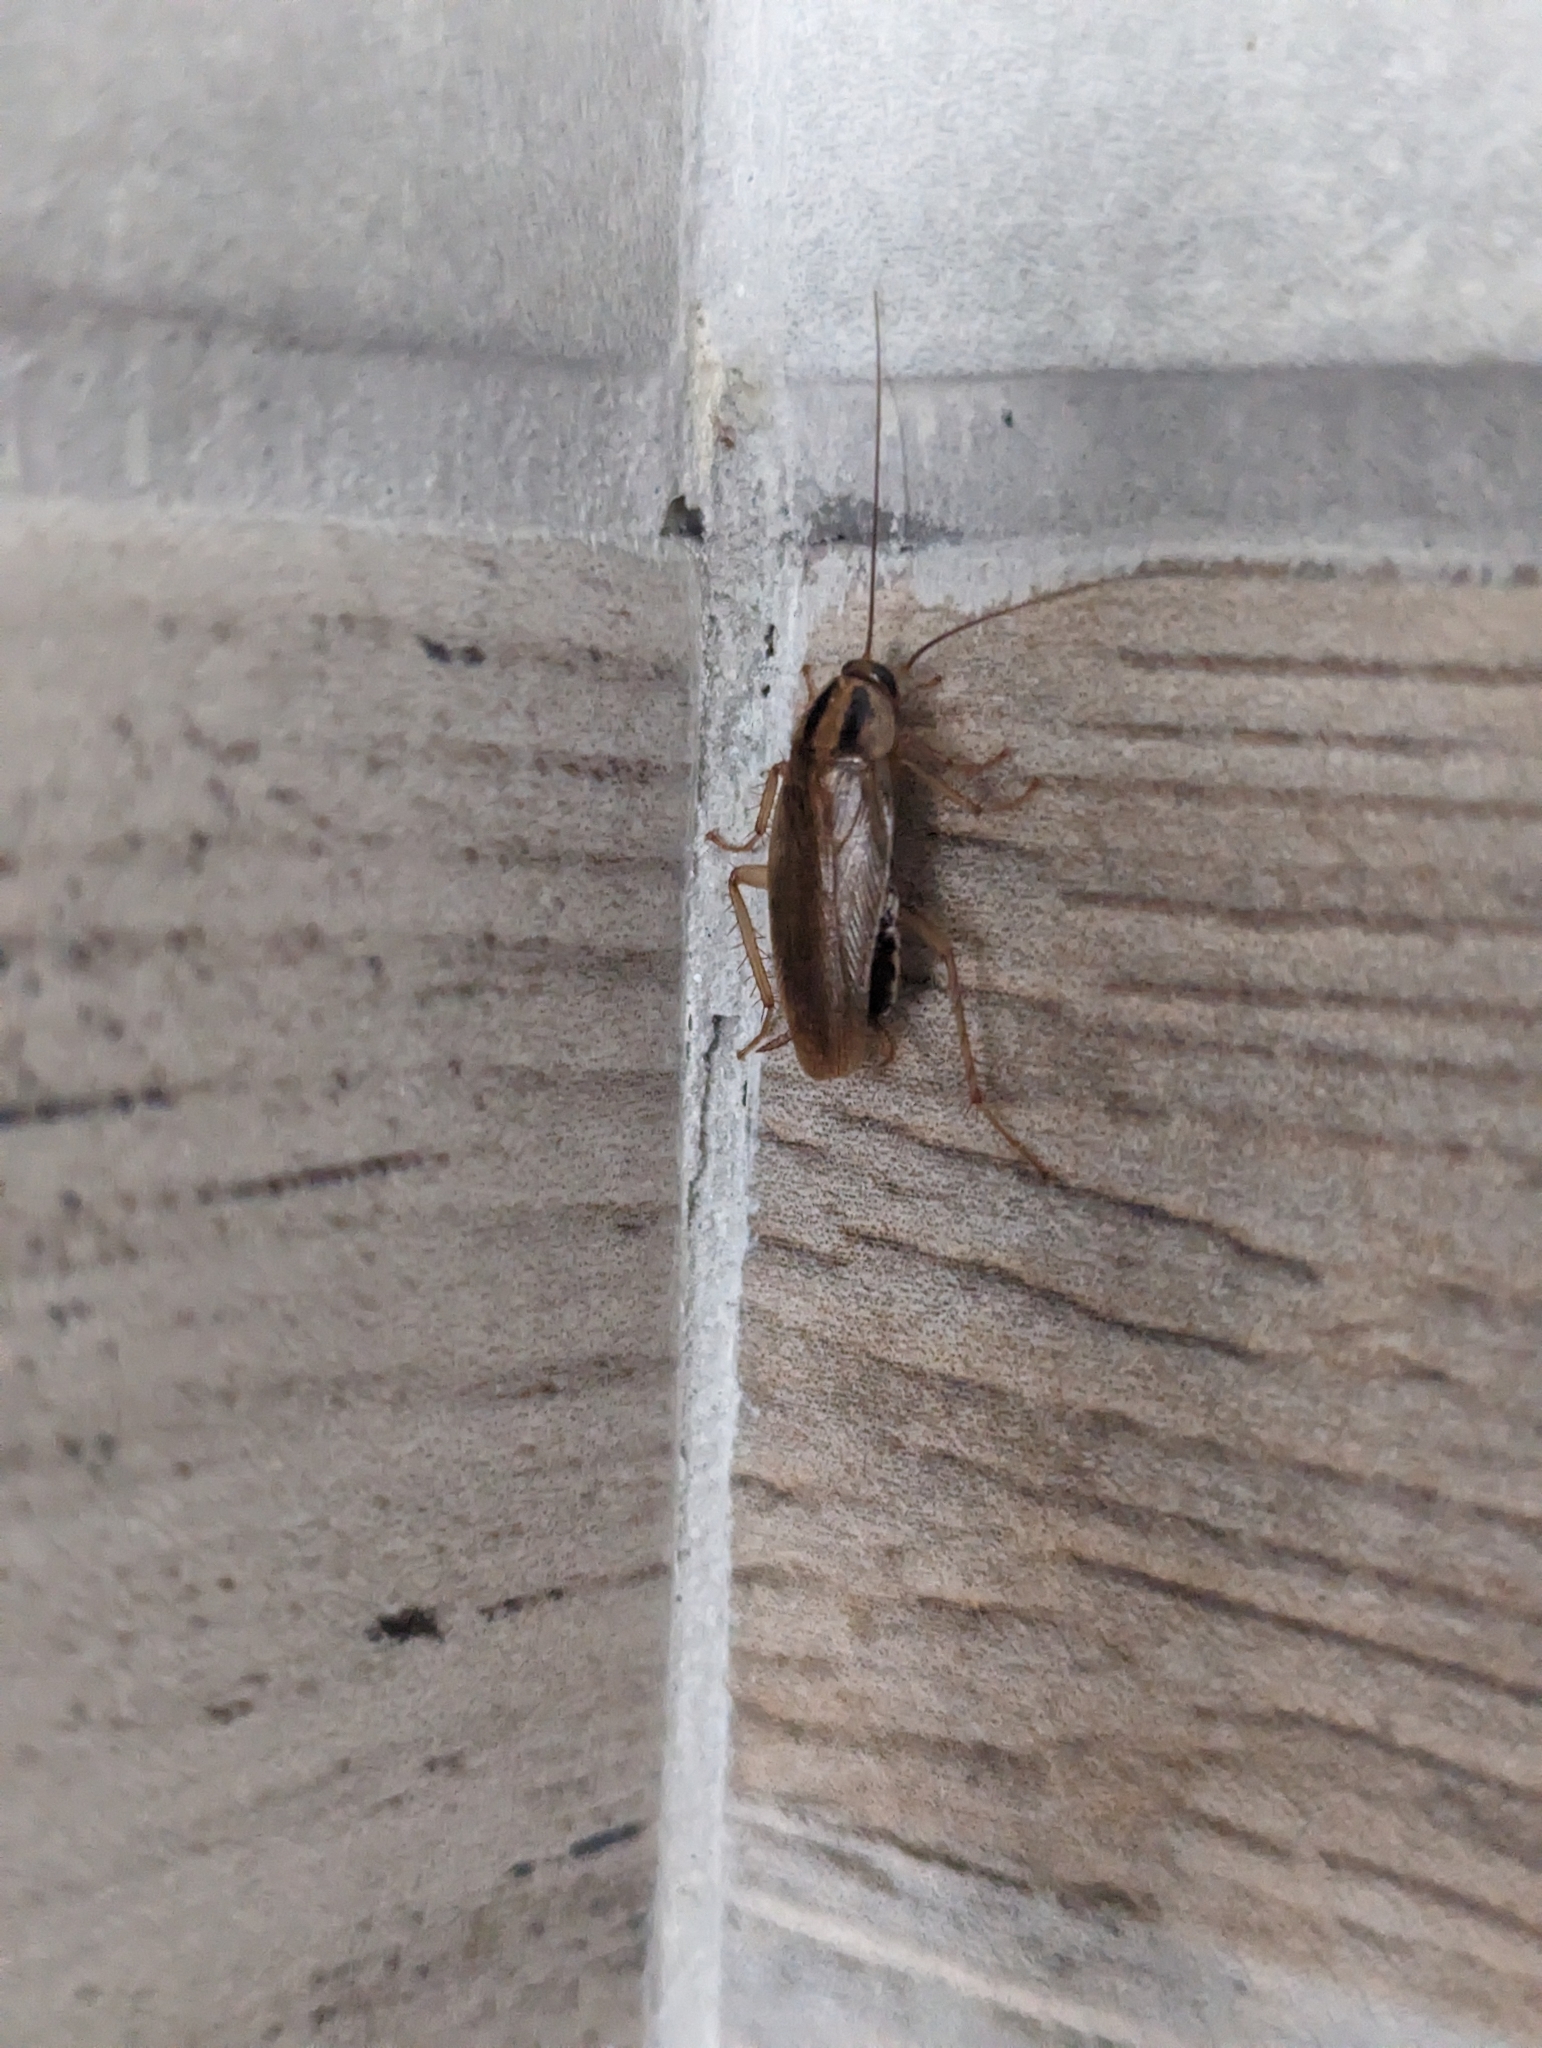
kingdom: Animalia
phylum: Arthropoda
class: Insecta
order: Blattodea
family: Ectobiidae
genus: Blattella
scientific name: Blattella germanica
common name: German cockroach
